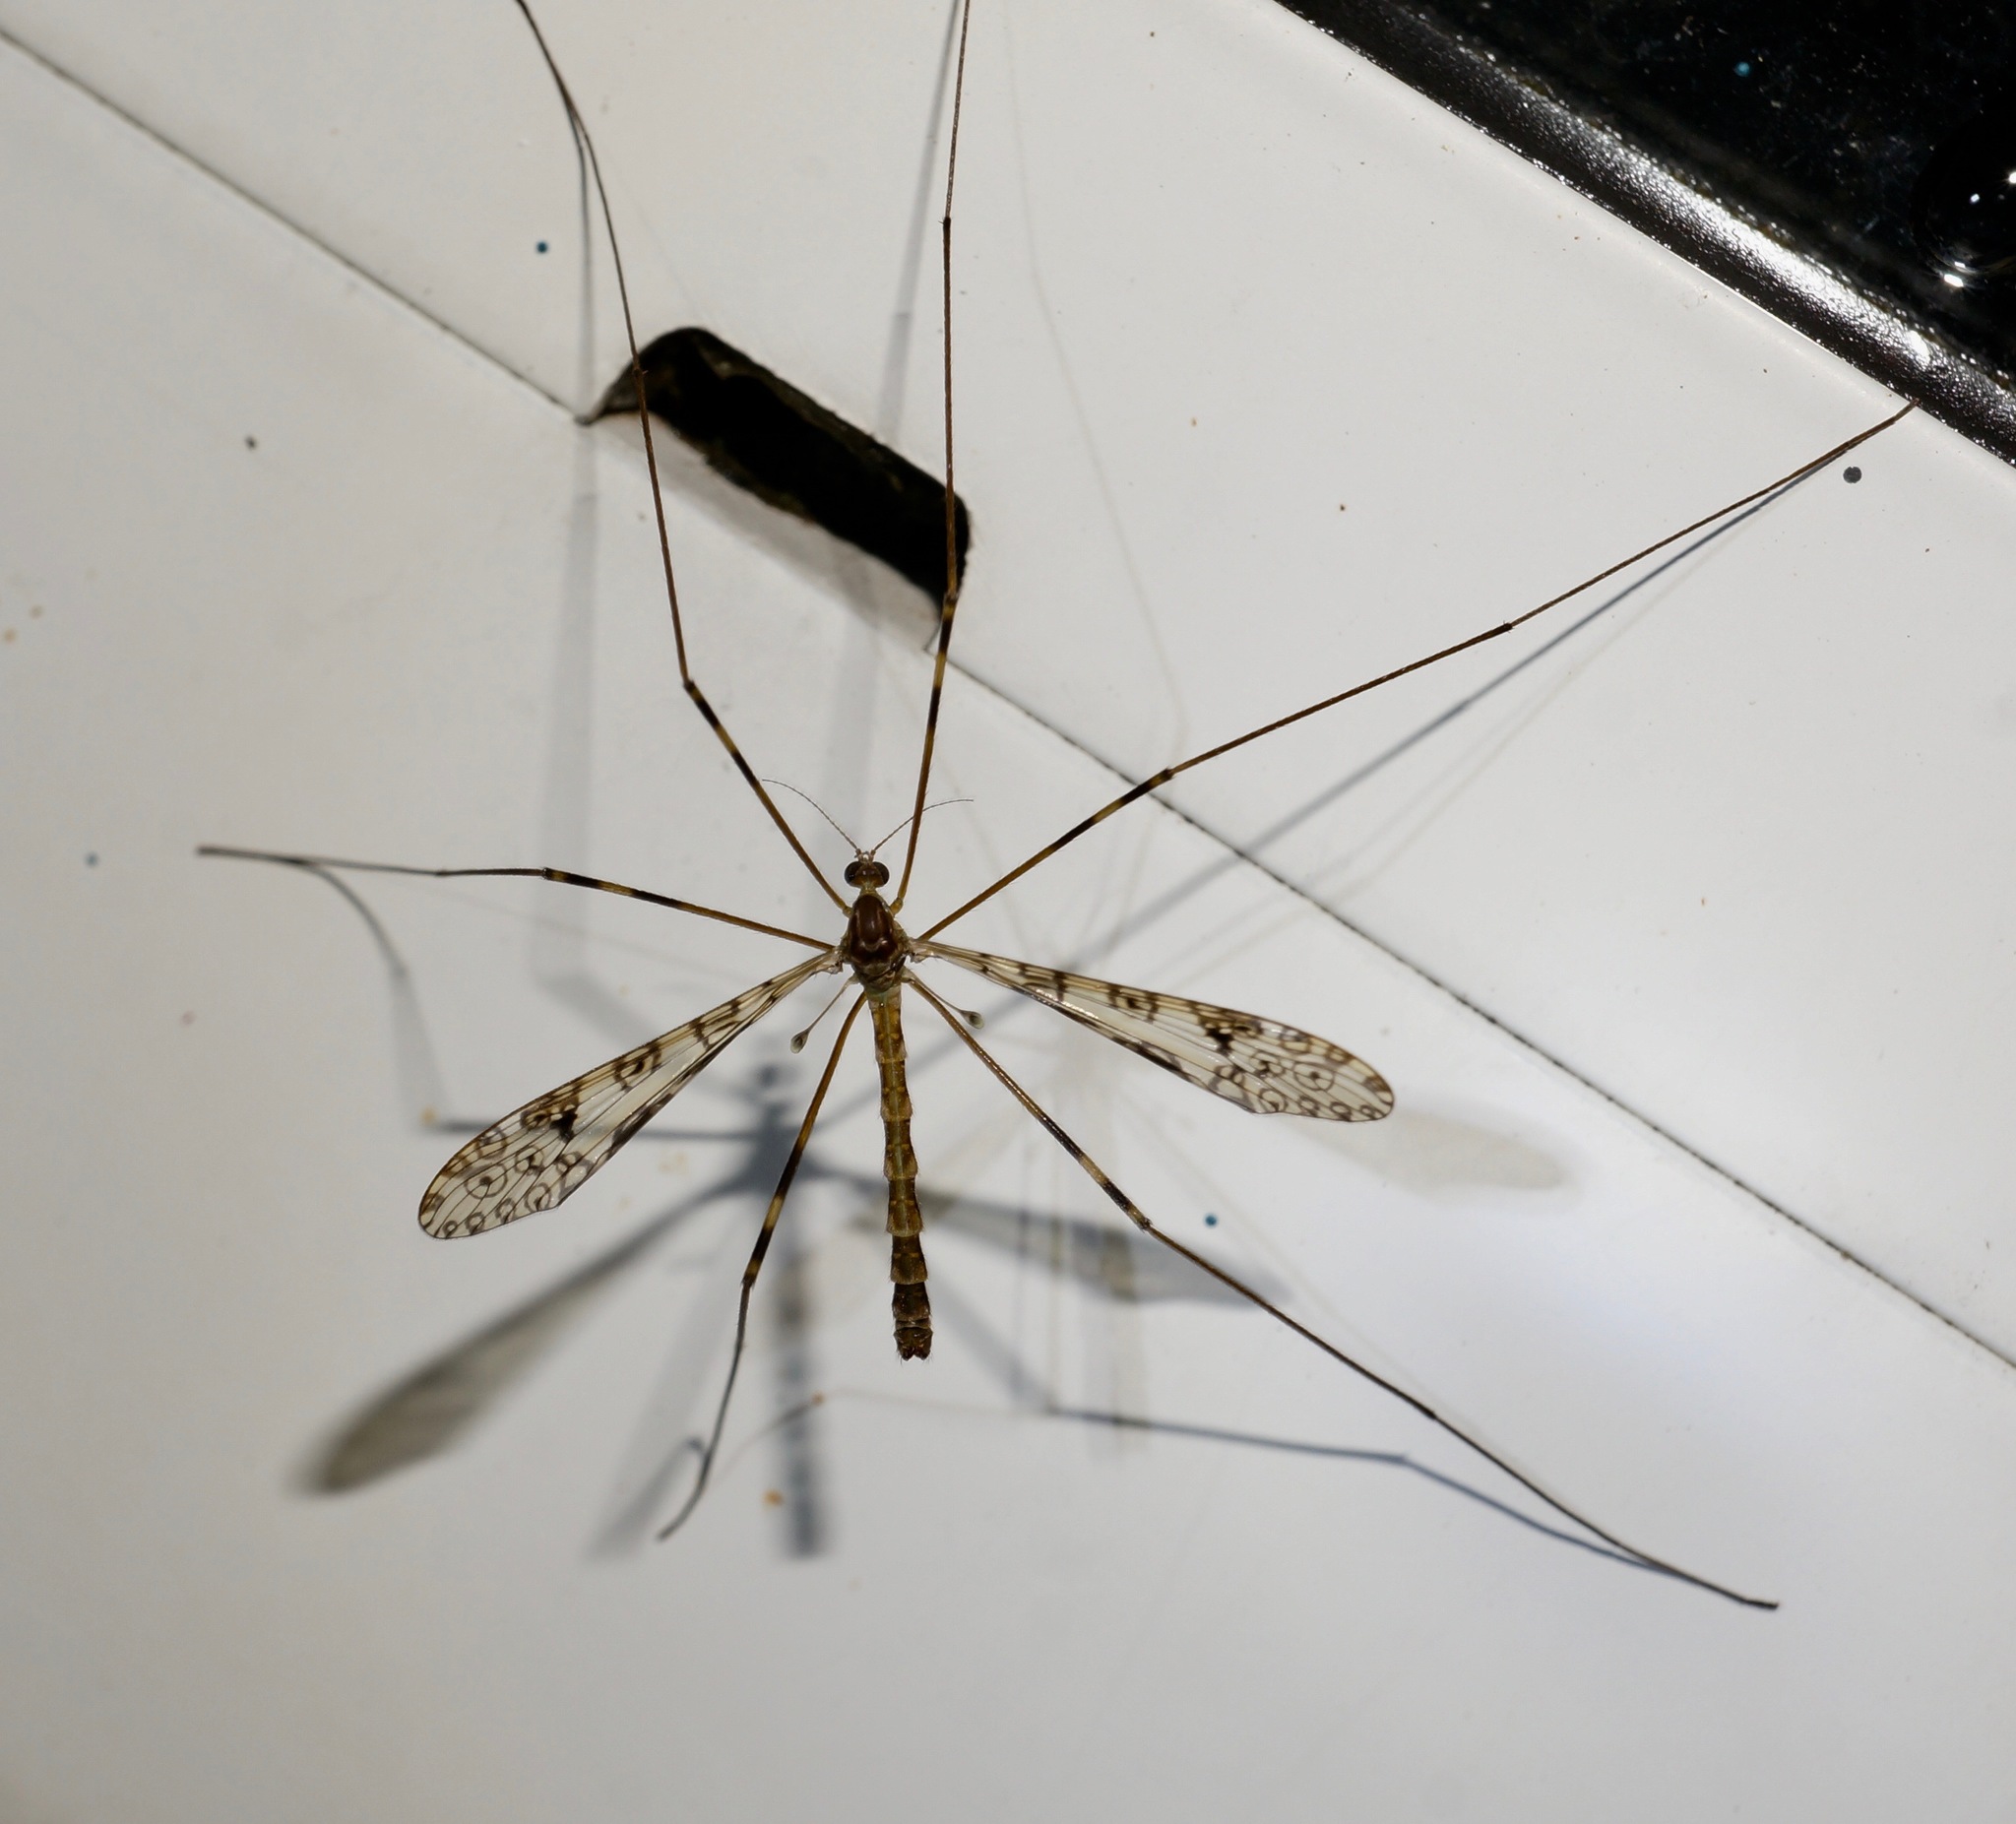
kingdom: Animalia
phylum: Arthropoda
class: Insecta
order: Diptera
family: Limoniidae
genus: Austrolimnophila
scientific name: Austrolimnophila argus
